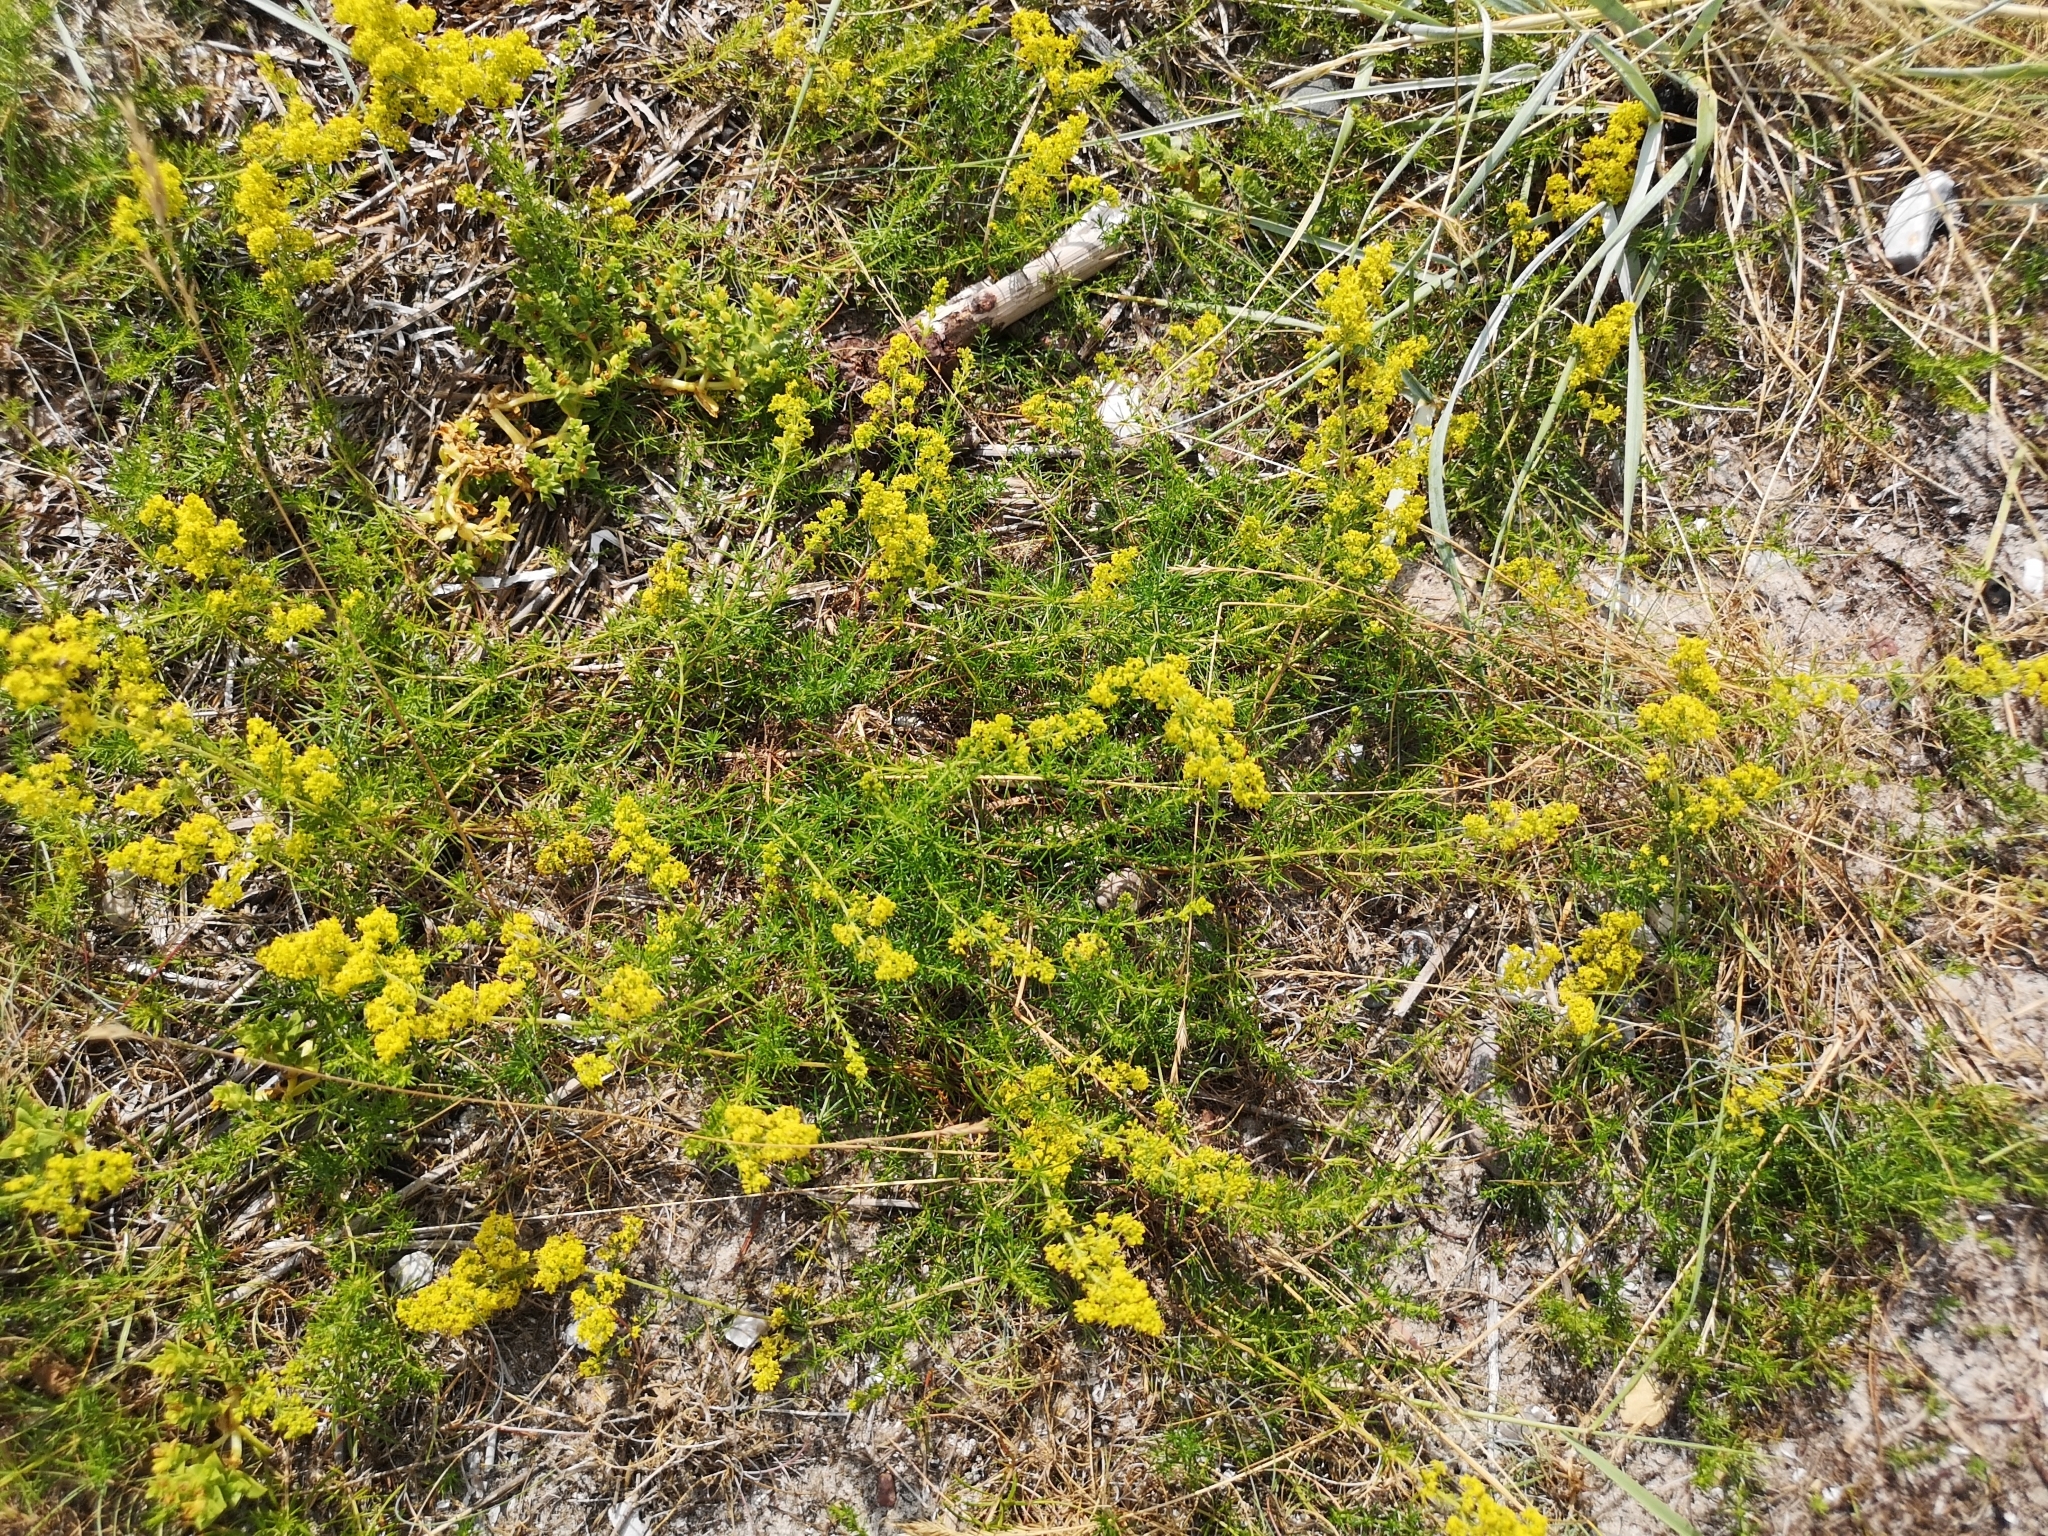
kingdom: Plantae
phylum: Tracheophyta
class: Magnoliopsida
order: Gentianales
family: Rubiaceae
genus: Galium
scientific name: Galium verum
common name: Lady's bedstraw
